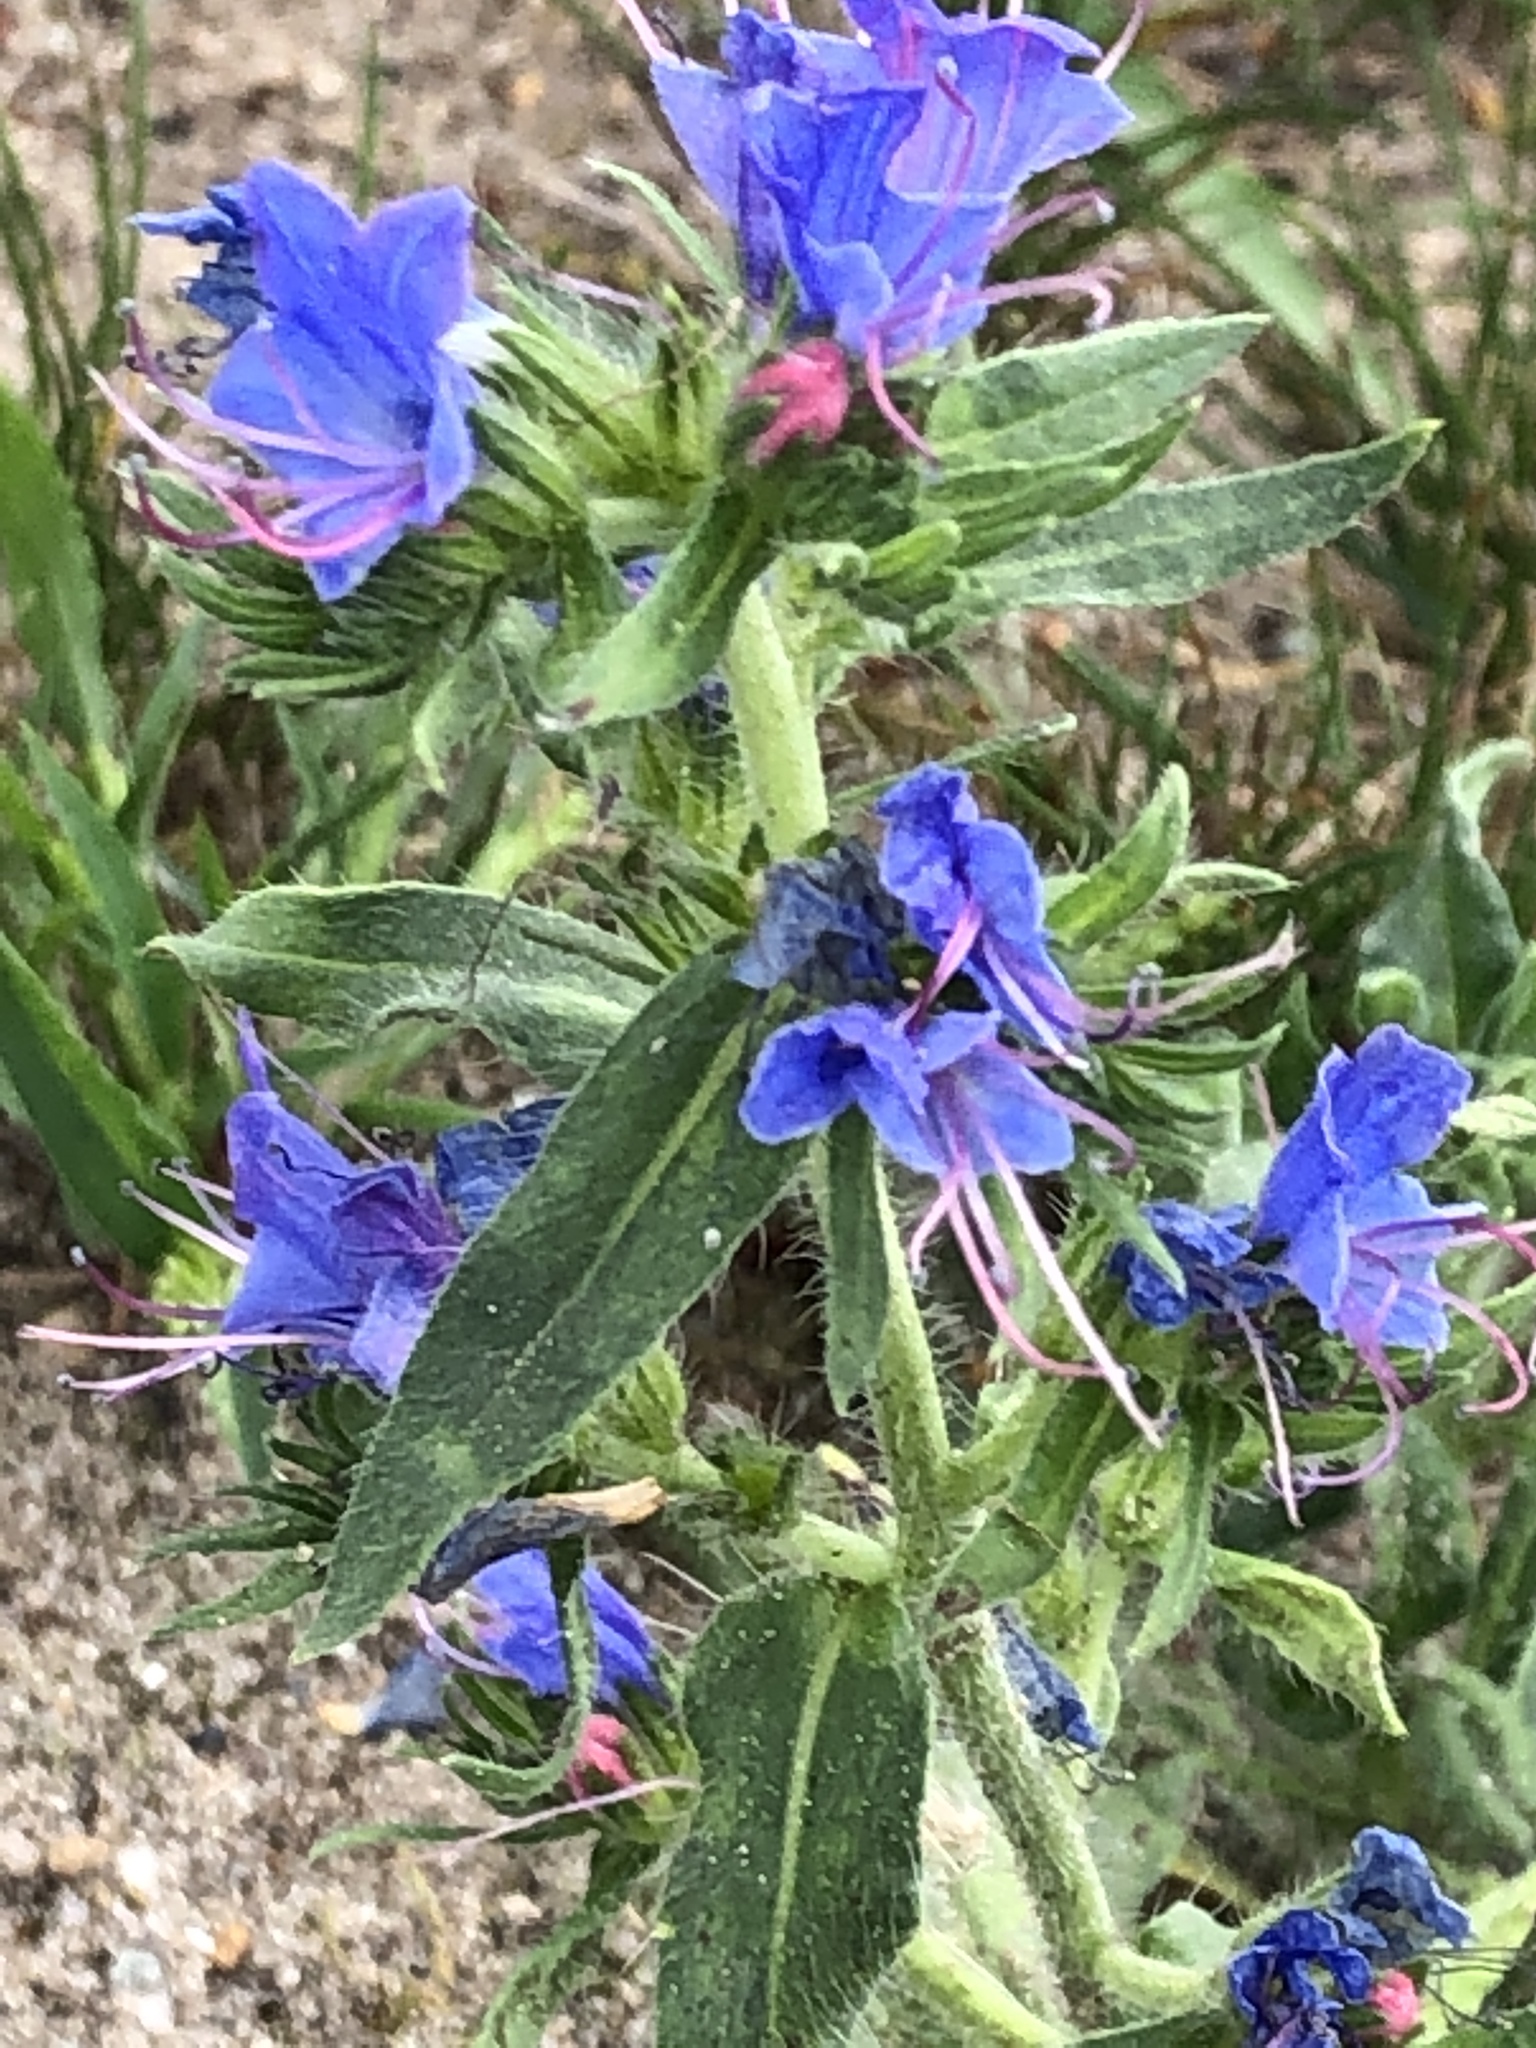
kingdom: Plantae
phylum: Tracheophyta
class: Magnoliopsida
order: Boraginales
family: Boraginaceae
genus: Echium
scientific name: Echium vulgare
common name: Common viper's bugloss
